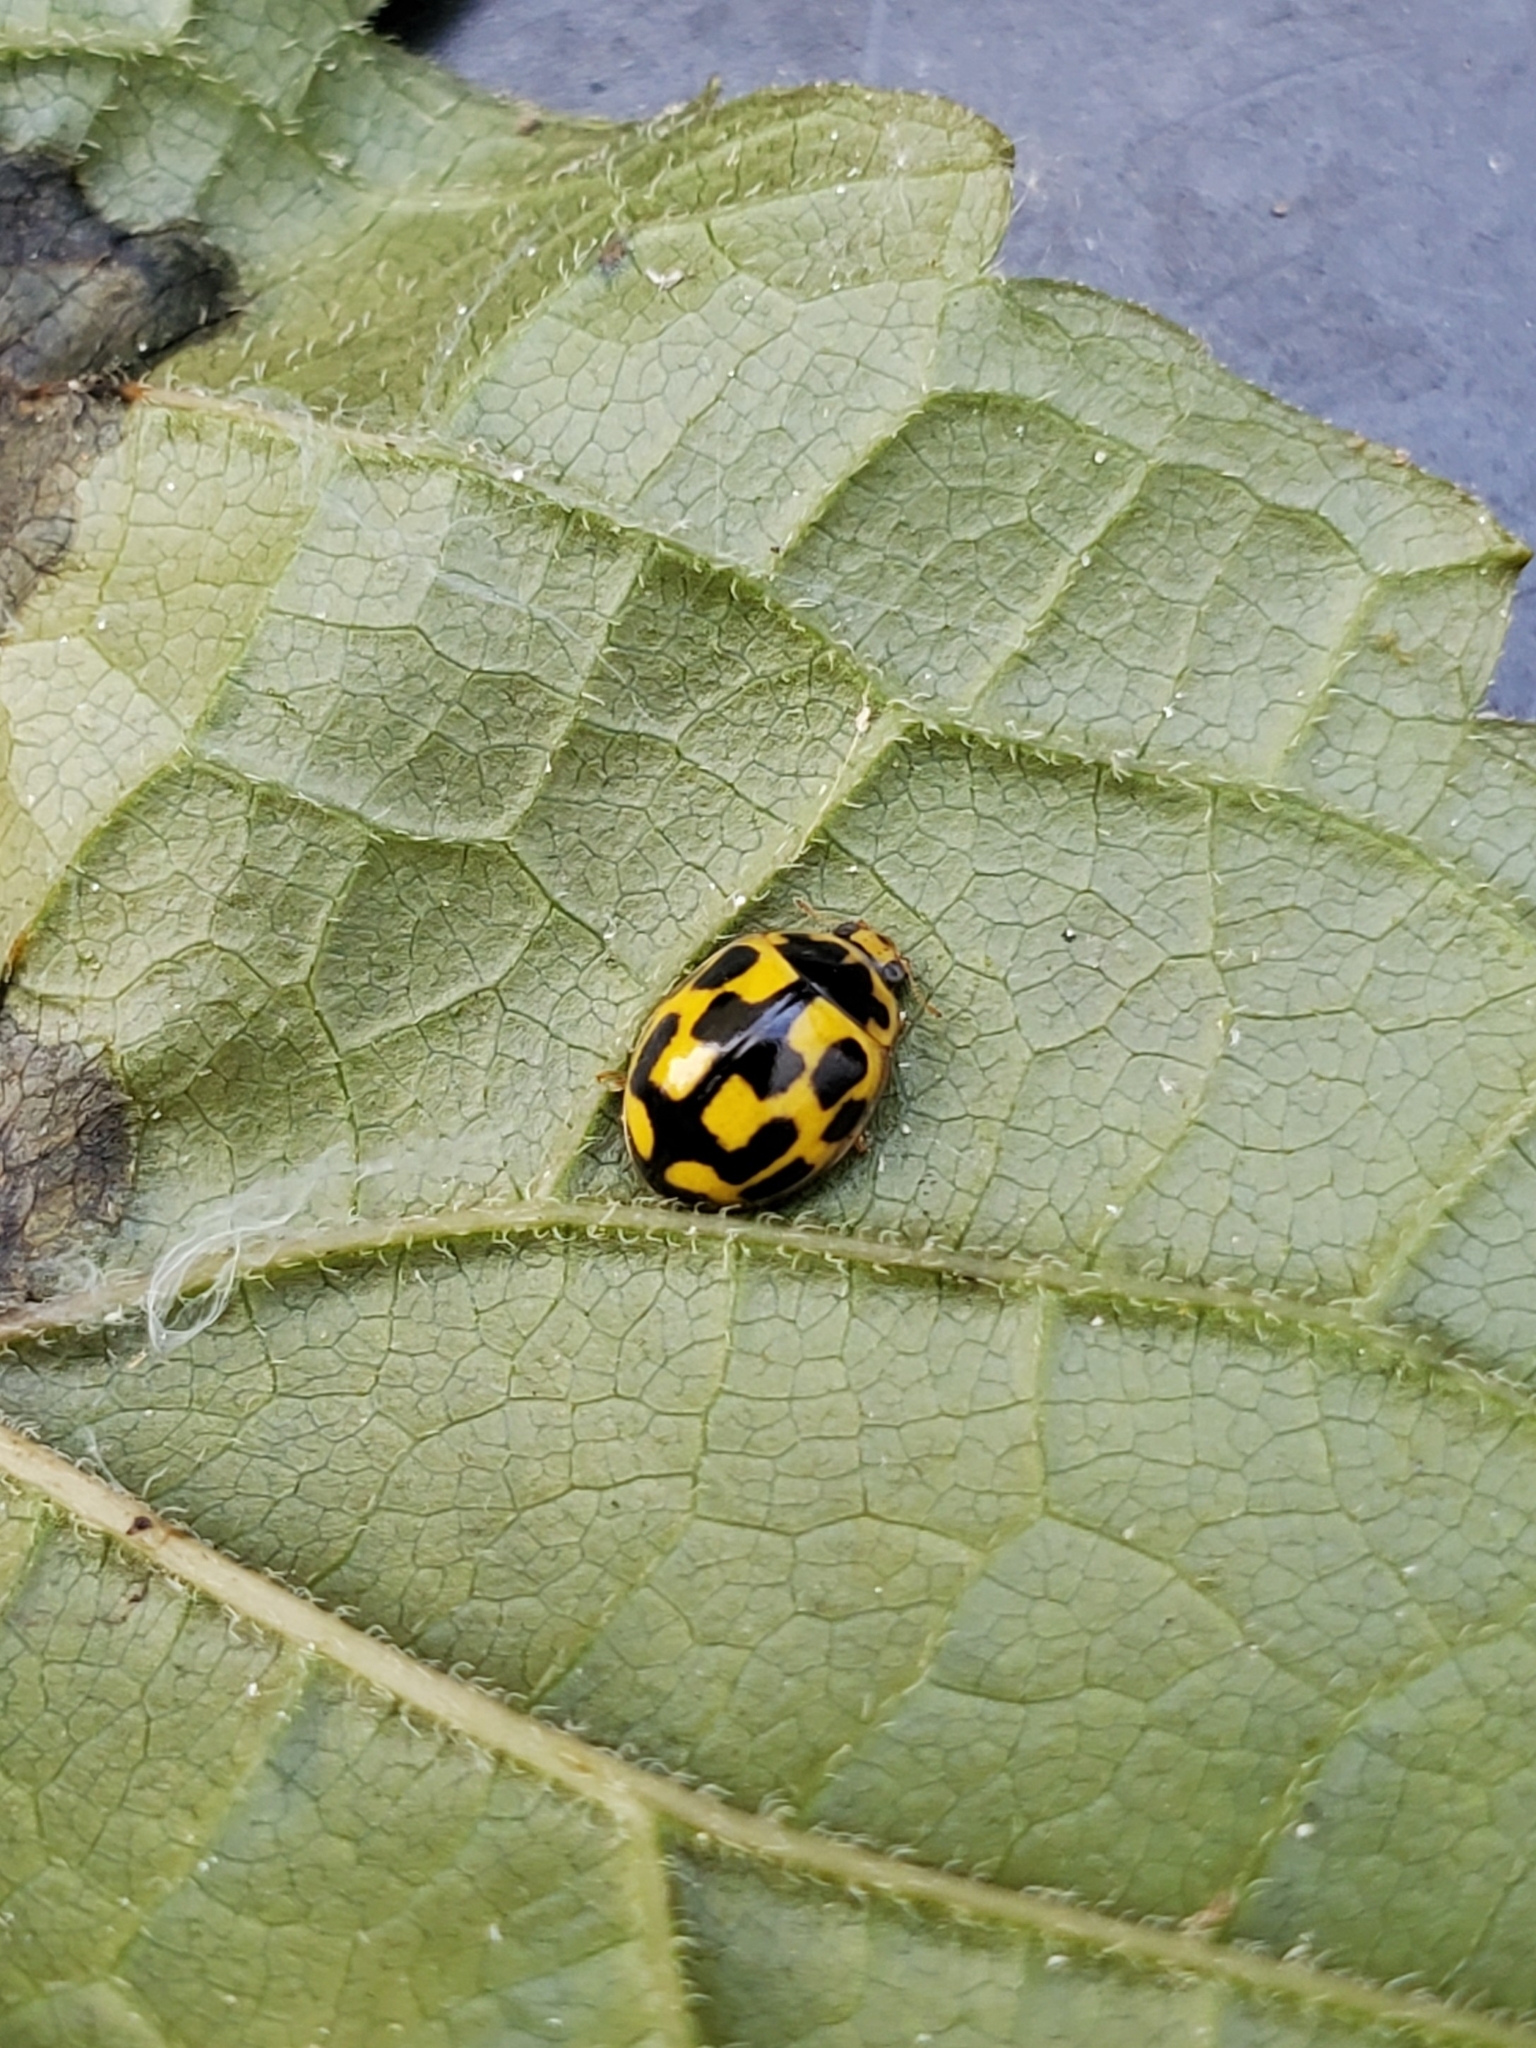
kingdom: Animalia
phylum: Arthropoda
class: Insecta
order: Coleoptera
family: Coccinellidae
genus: Propylaea
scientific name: Propylaea quatuordecimpunctata
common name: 14-spotted ladybird beetle
